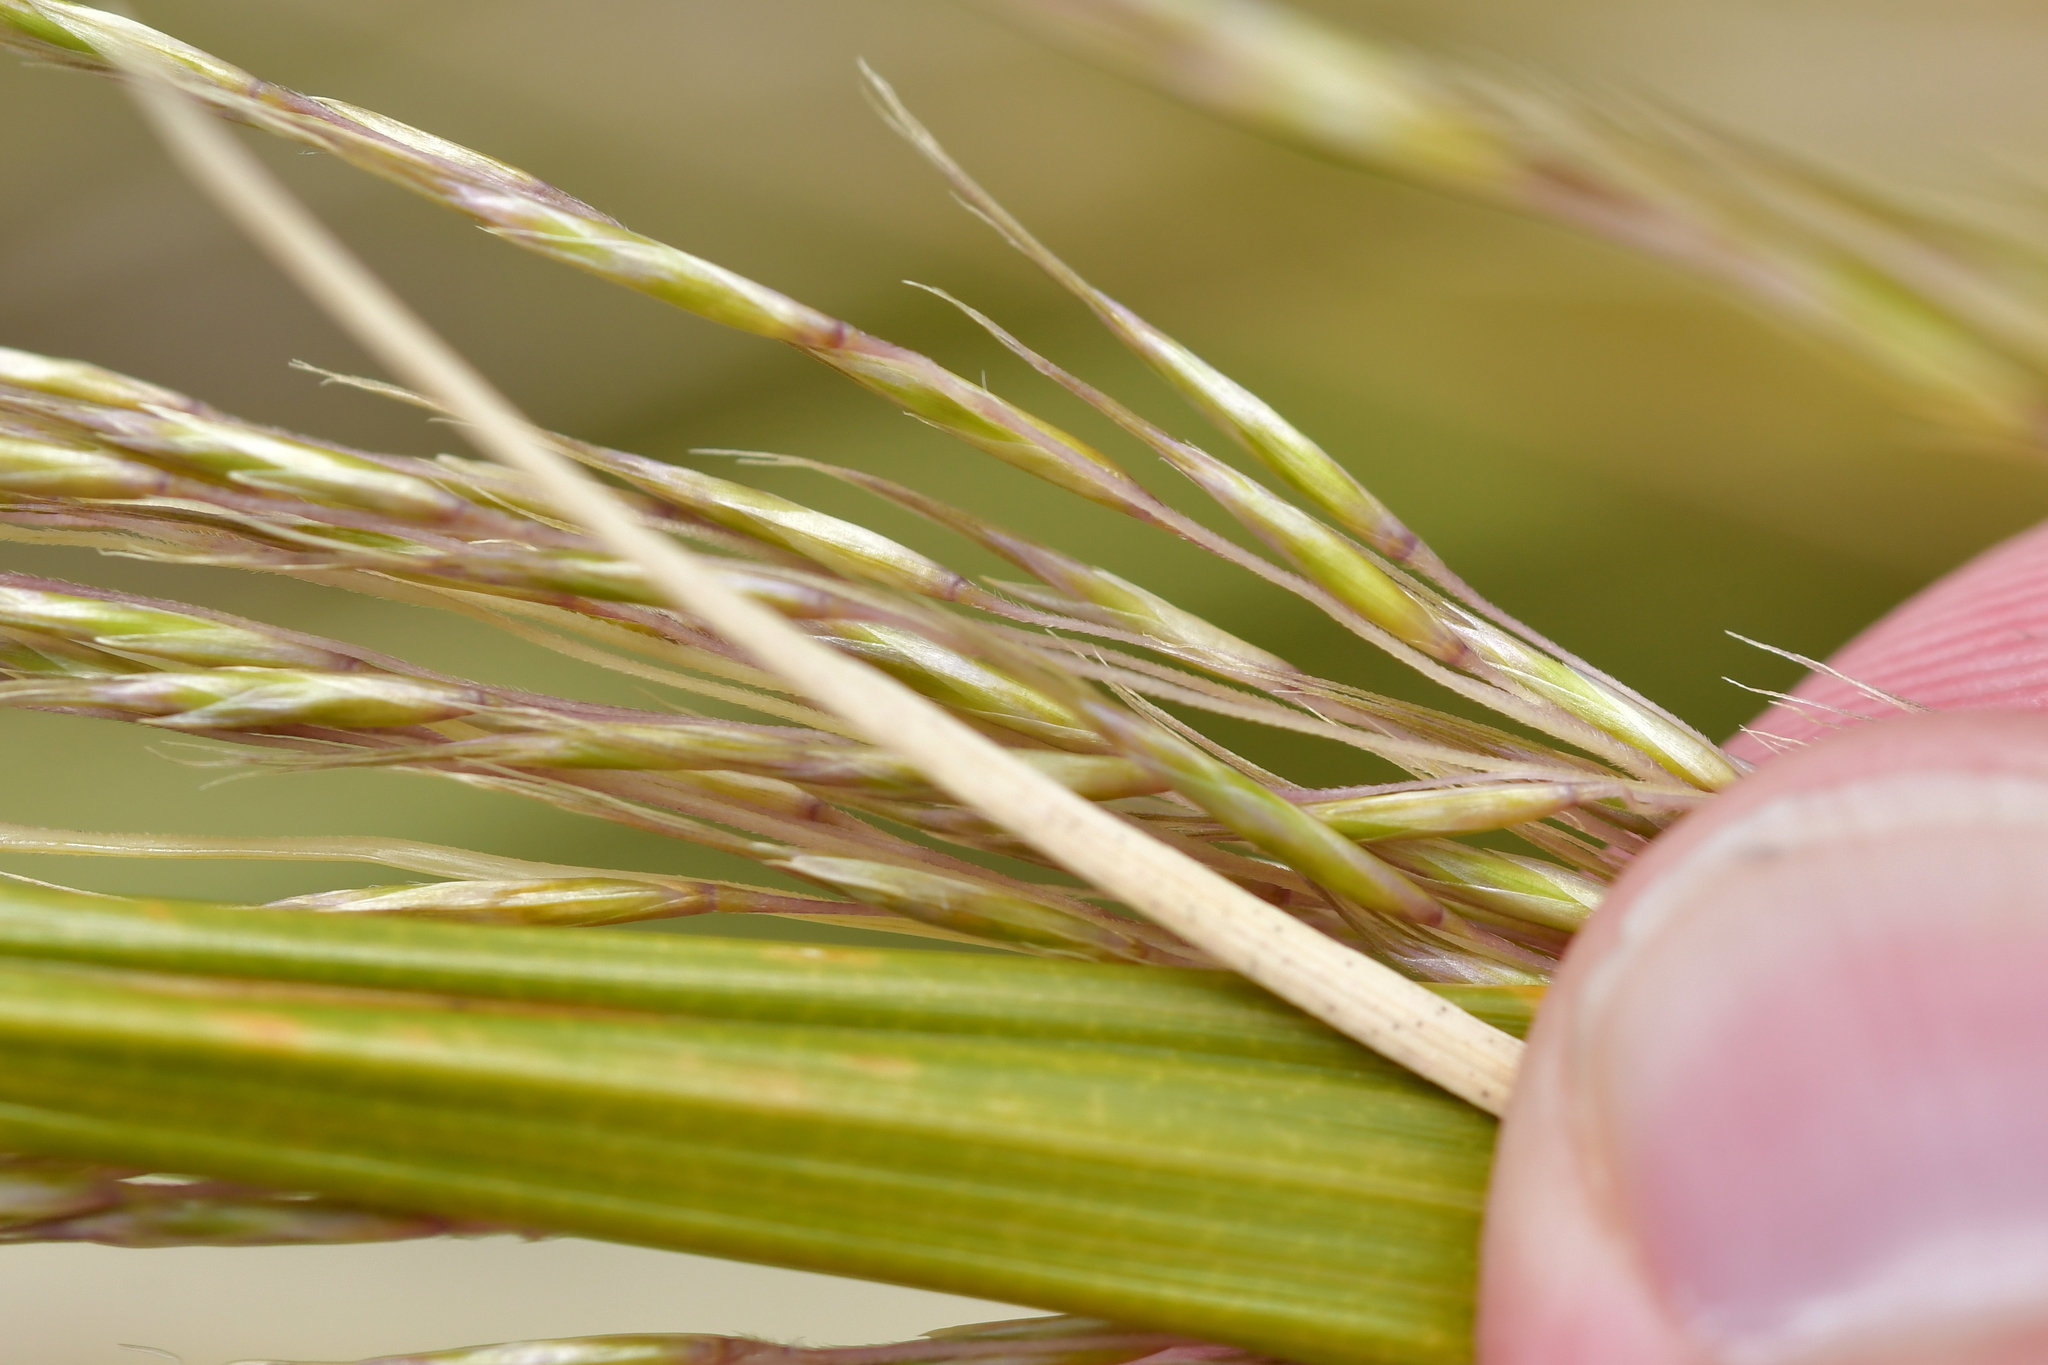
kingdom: Plantae
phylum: Tracheophyta
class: Liliopsida
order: Poales
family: Poaceae
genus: Chionochloa
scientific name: Chionochloa pallens
